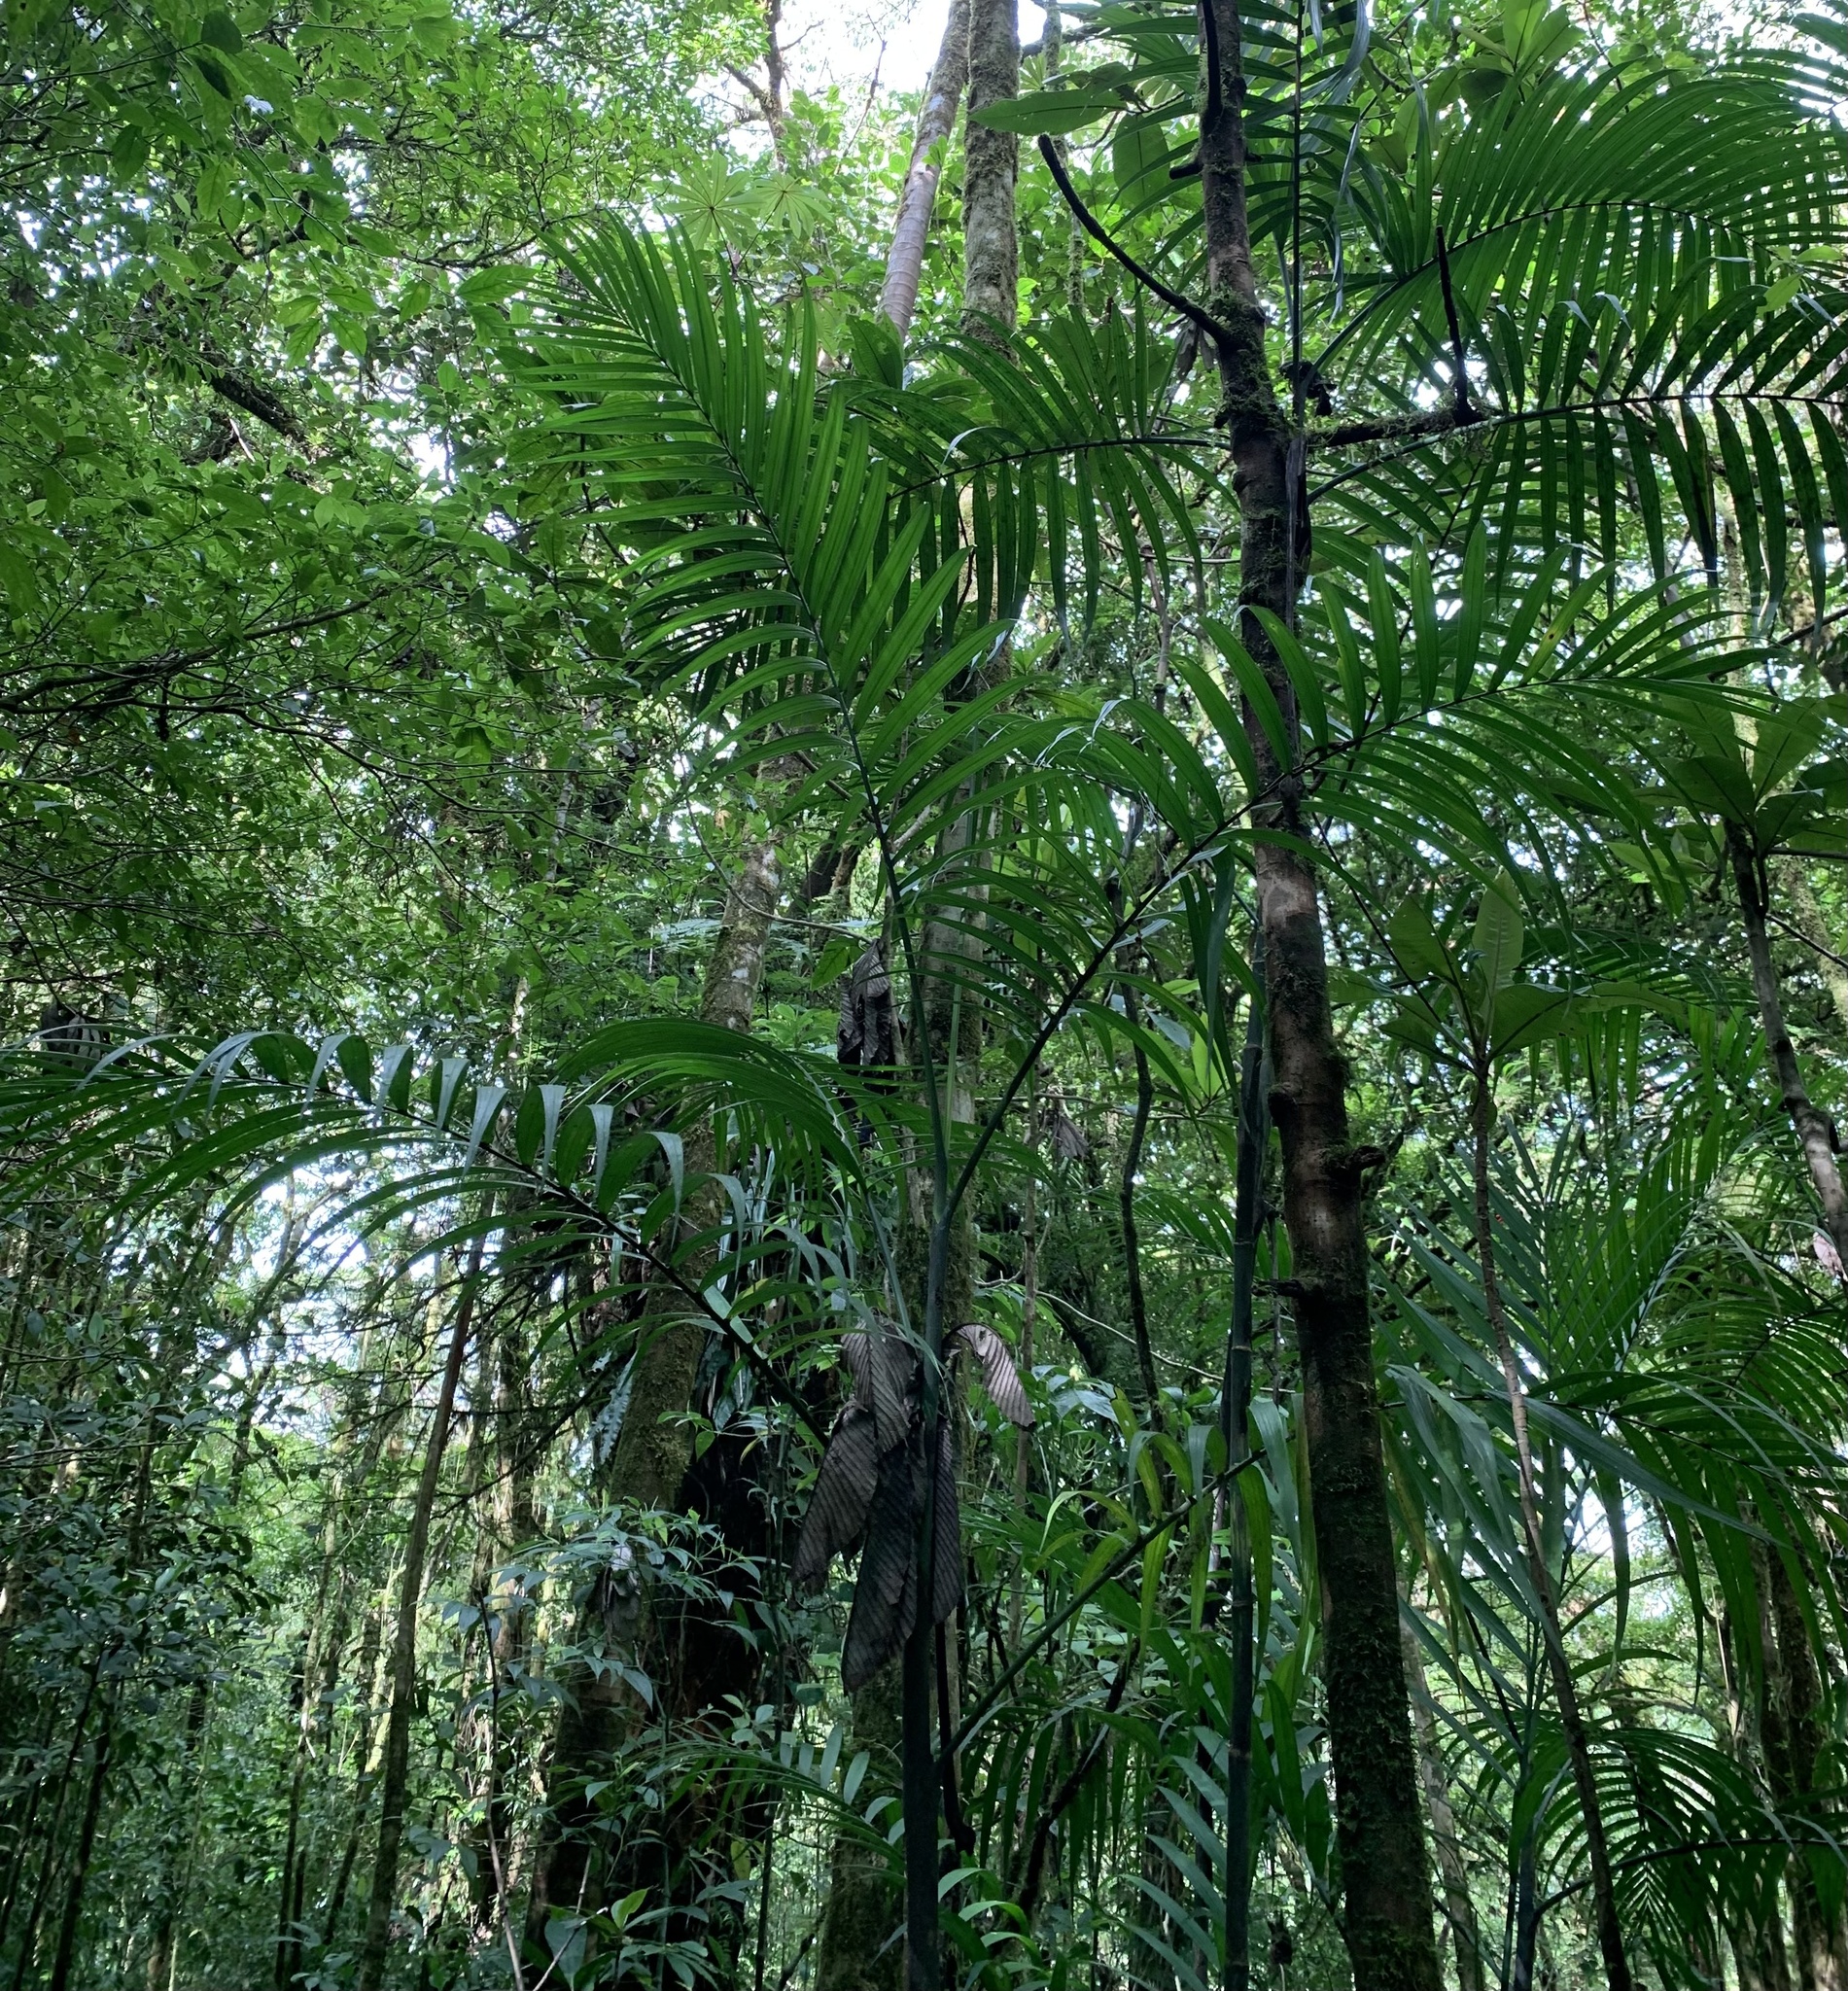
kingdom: Plantae
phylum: Tracheophyta
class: Liliopsida
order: Arecales
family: Arecaceae
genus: Chamaedorea
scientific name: Chamaedorea costaricana
